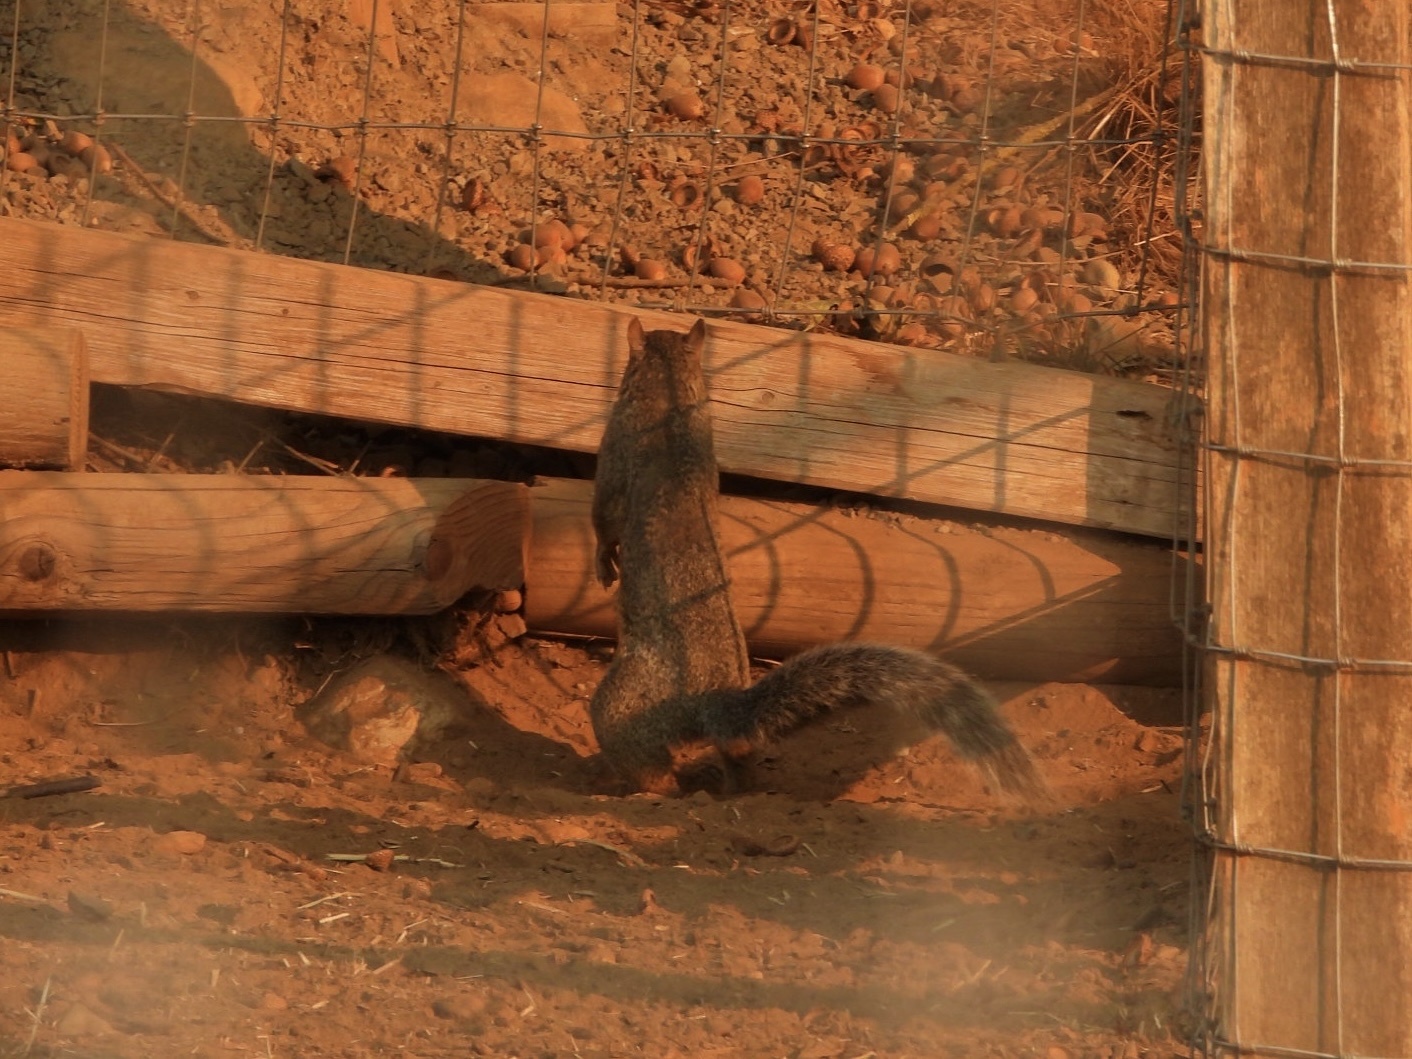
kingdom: Animalia
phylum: Chordata
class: Mammalia
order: Rodentia
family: Sciuridae
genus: Sciurus
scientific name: Sciurus carolinensis
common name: Eastern gray squirrel
